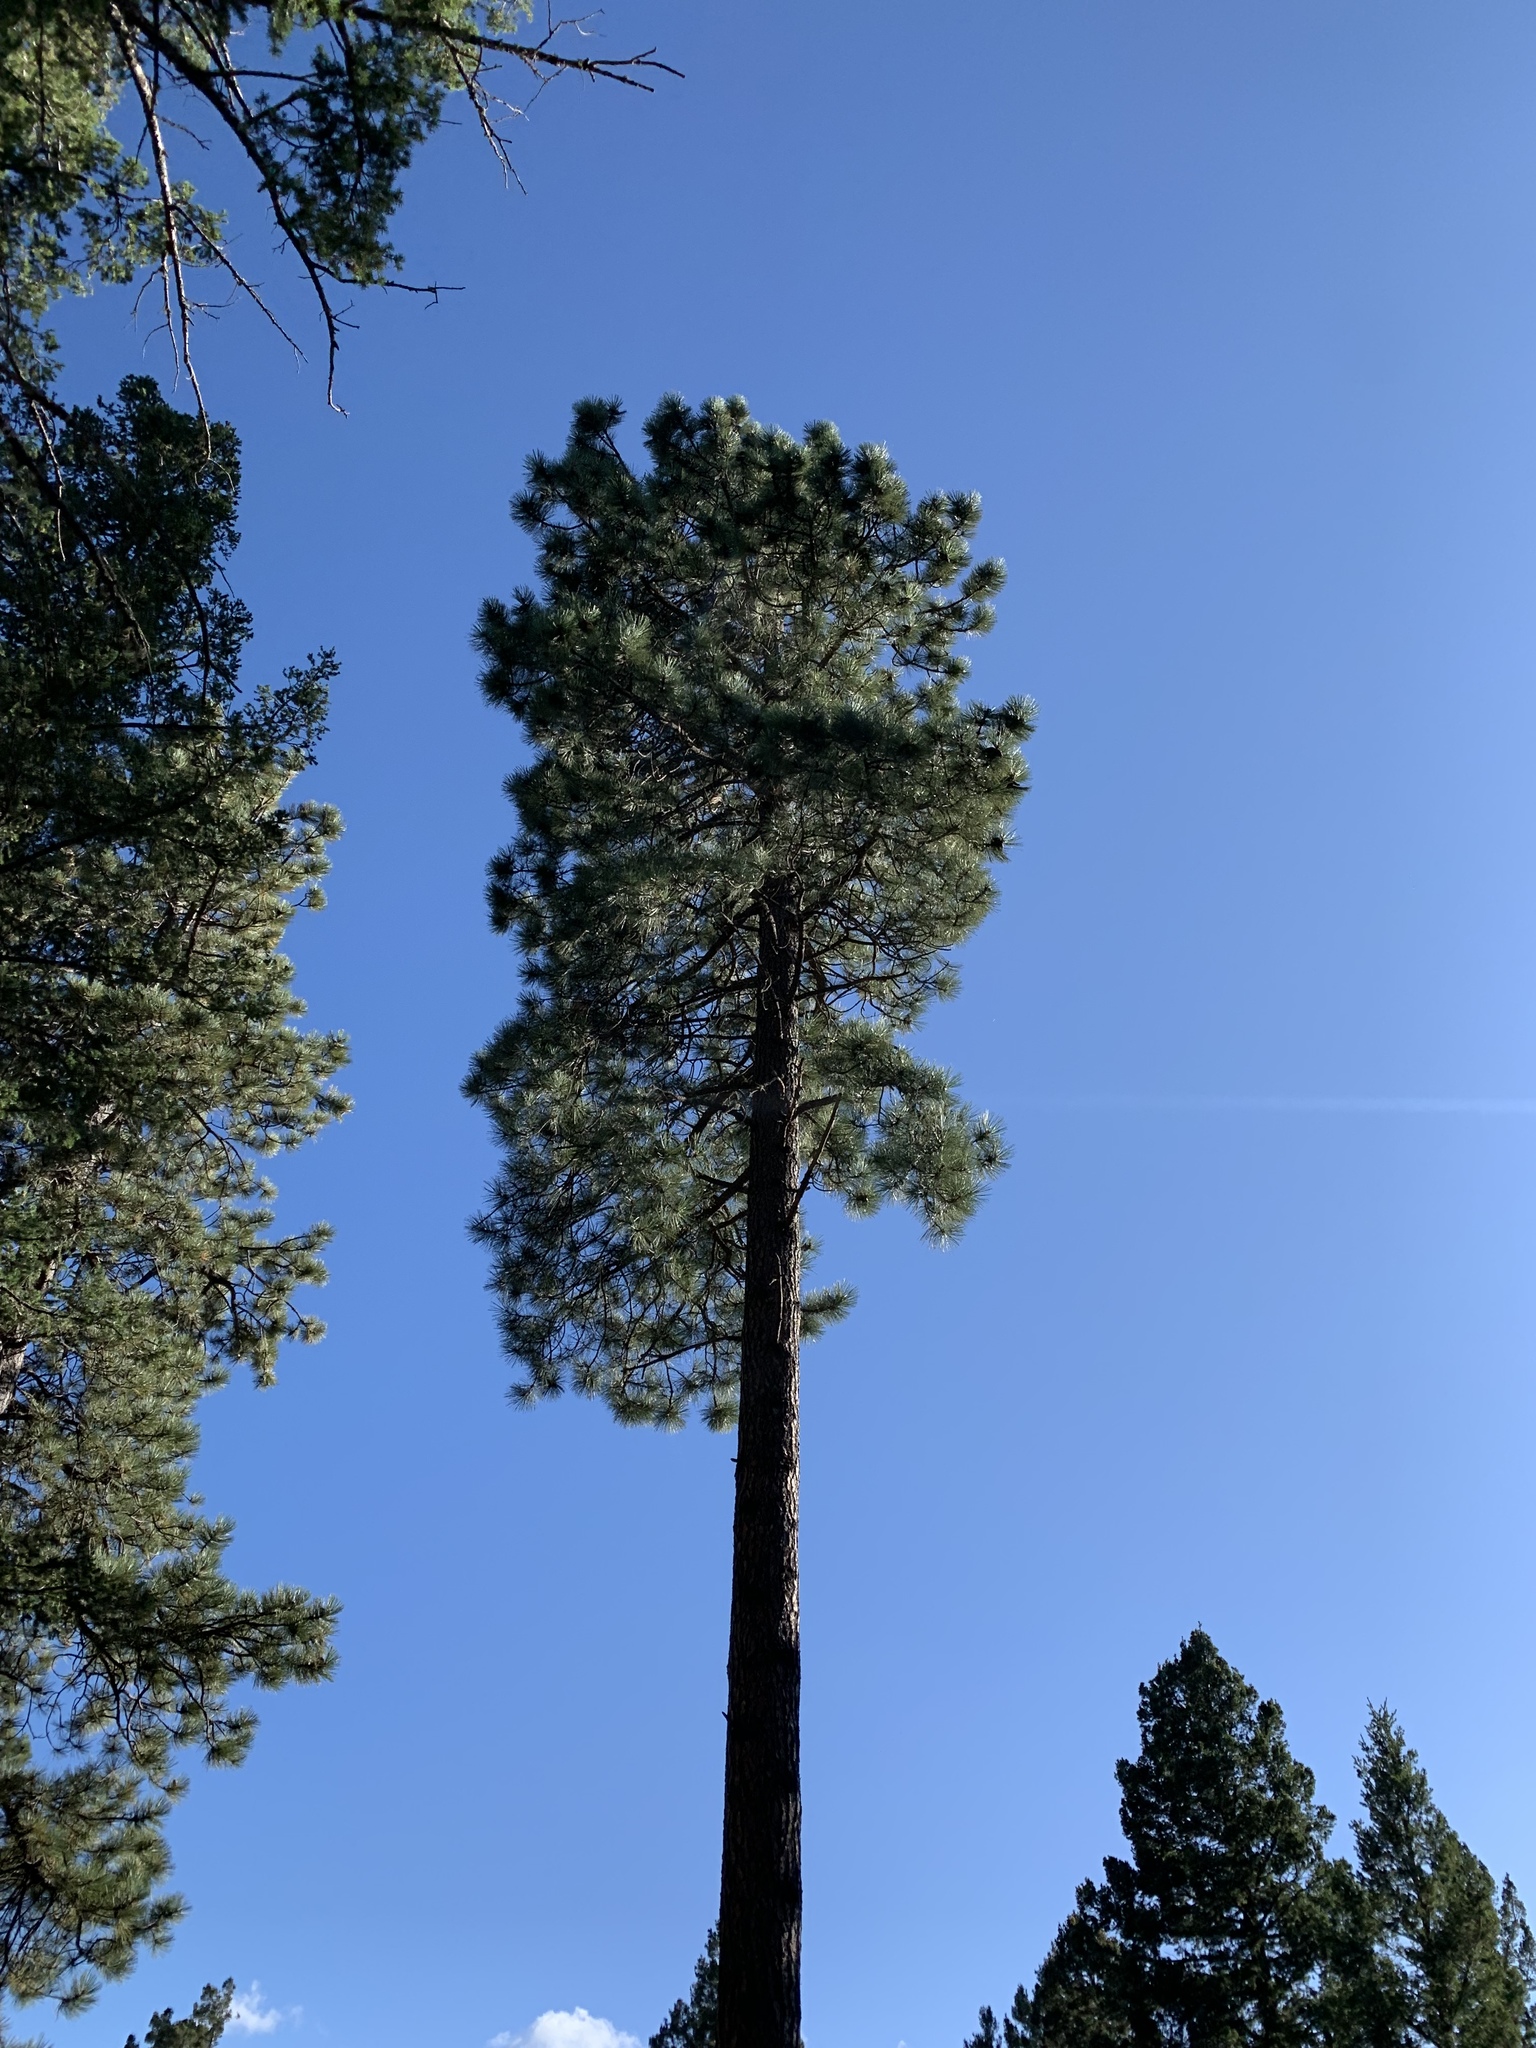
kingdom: Plantae
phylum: Tracheophyta
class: Pinopsida
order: Pinales
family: Pinaceae
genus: Pinus
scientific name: Pinus ponderosa
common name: Western yellow-pine
